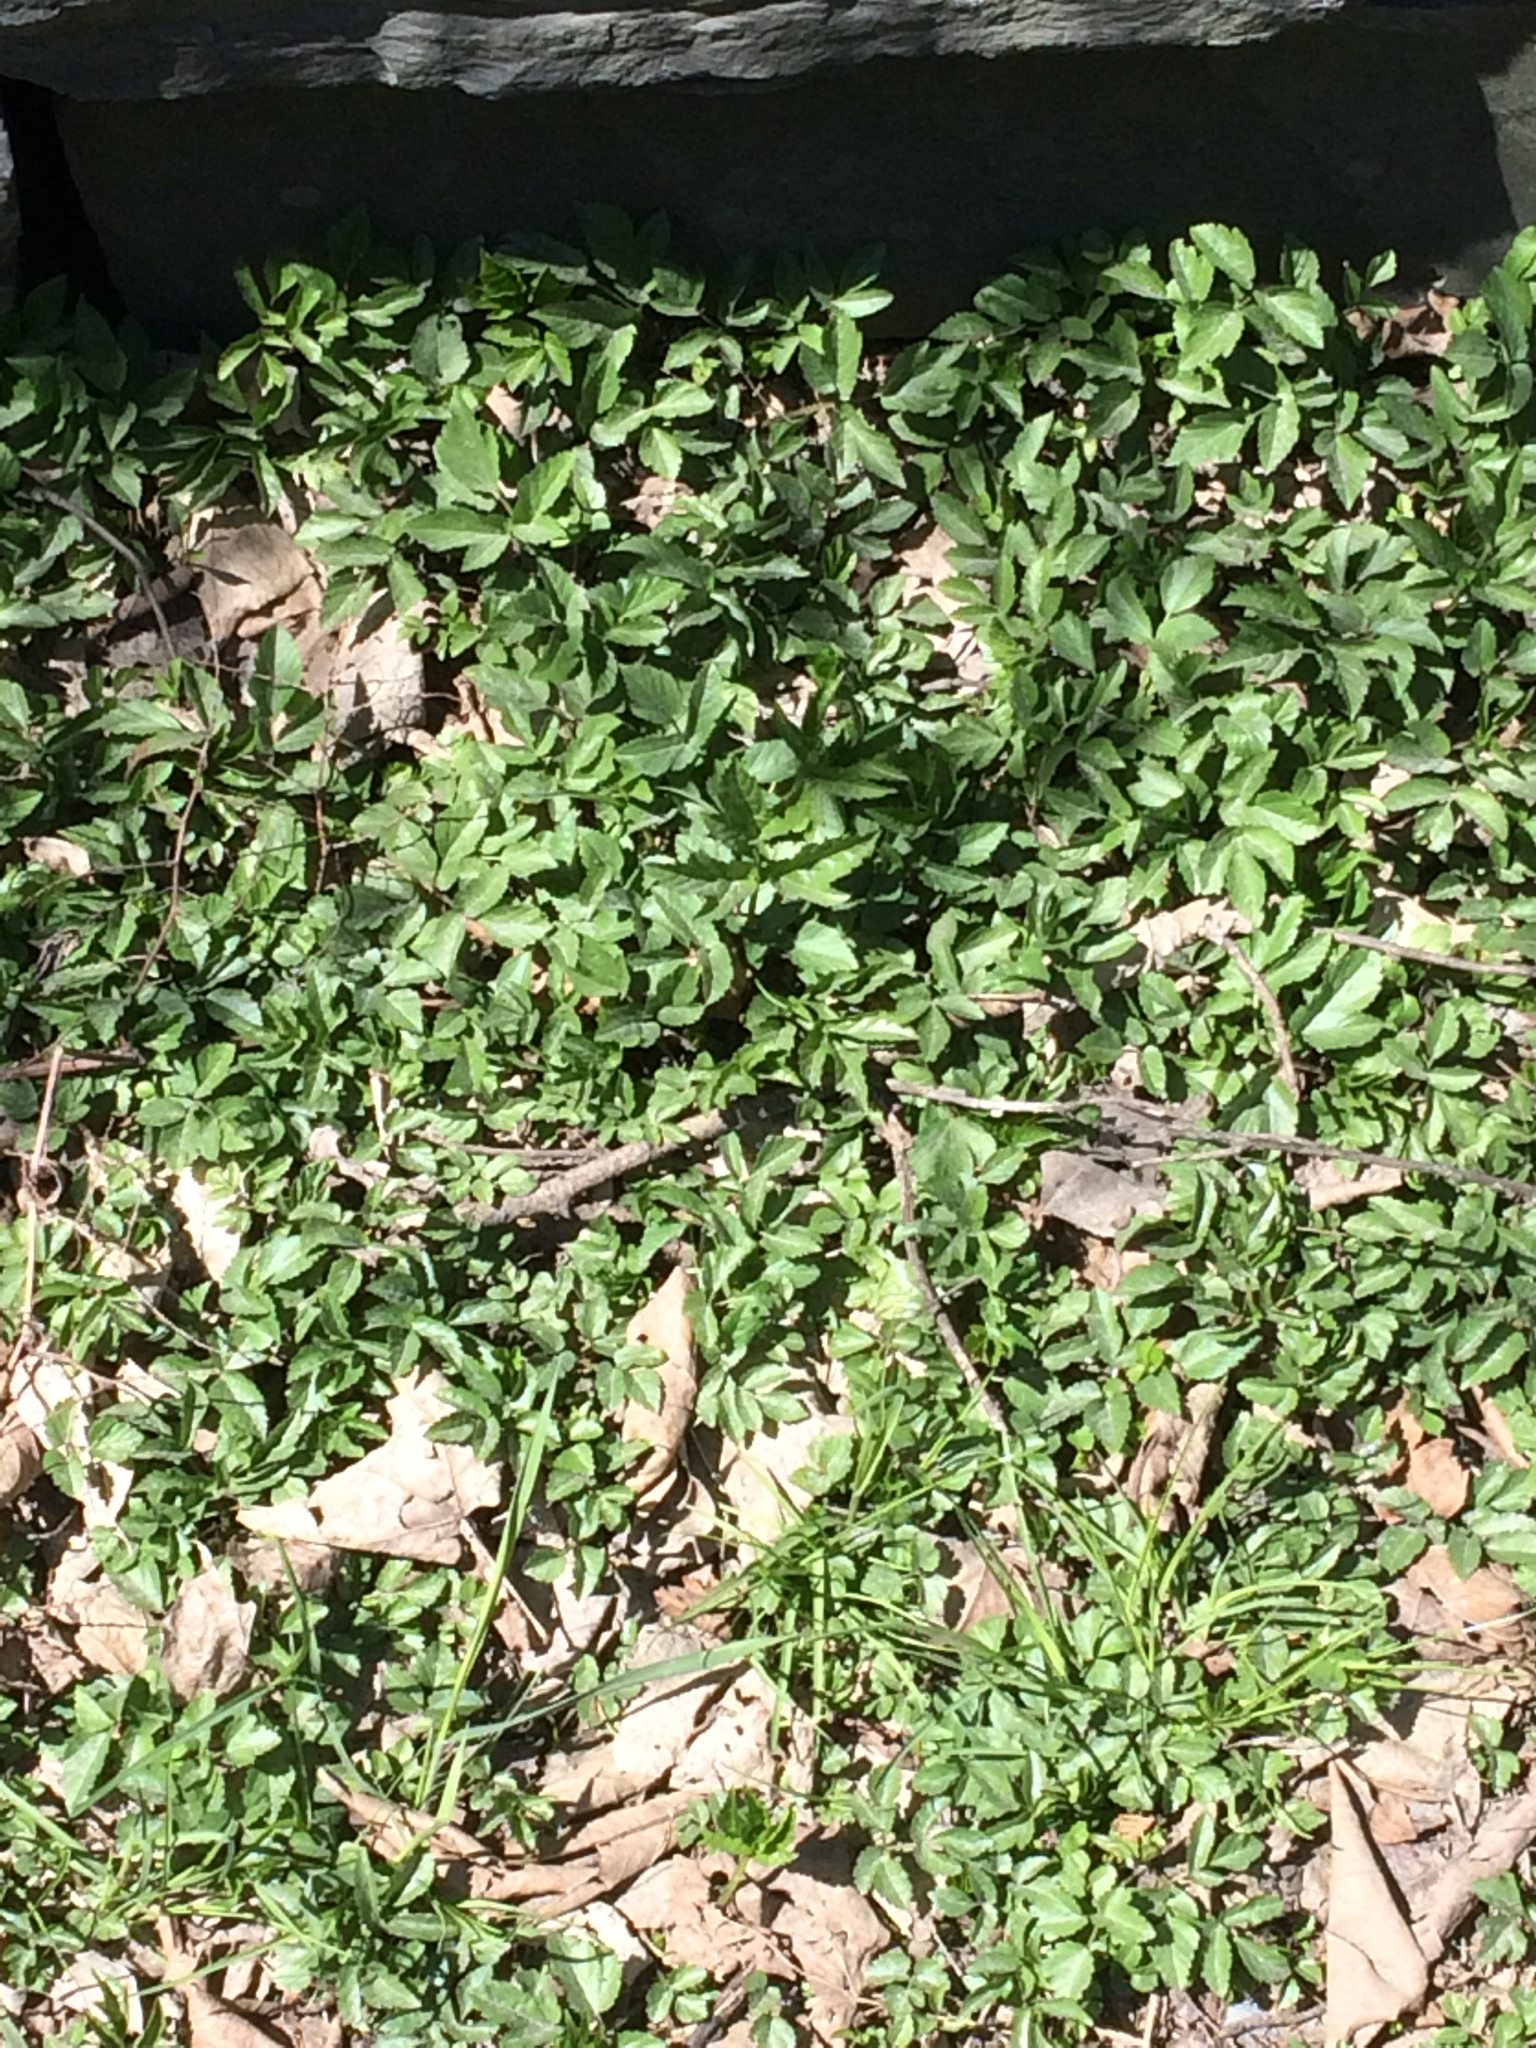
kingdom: Plantae
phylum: Tracheophyta
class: Magnoliopsida
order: Apiales
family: Apiaceae
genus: Aegopodium
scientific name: Aegopodium podagraria
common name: Ground-elder
